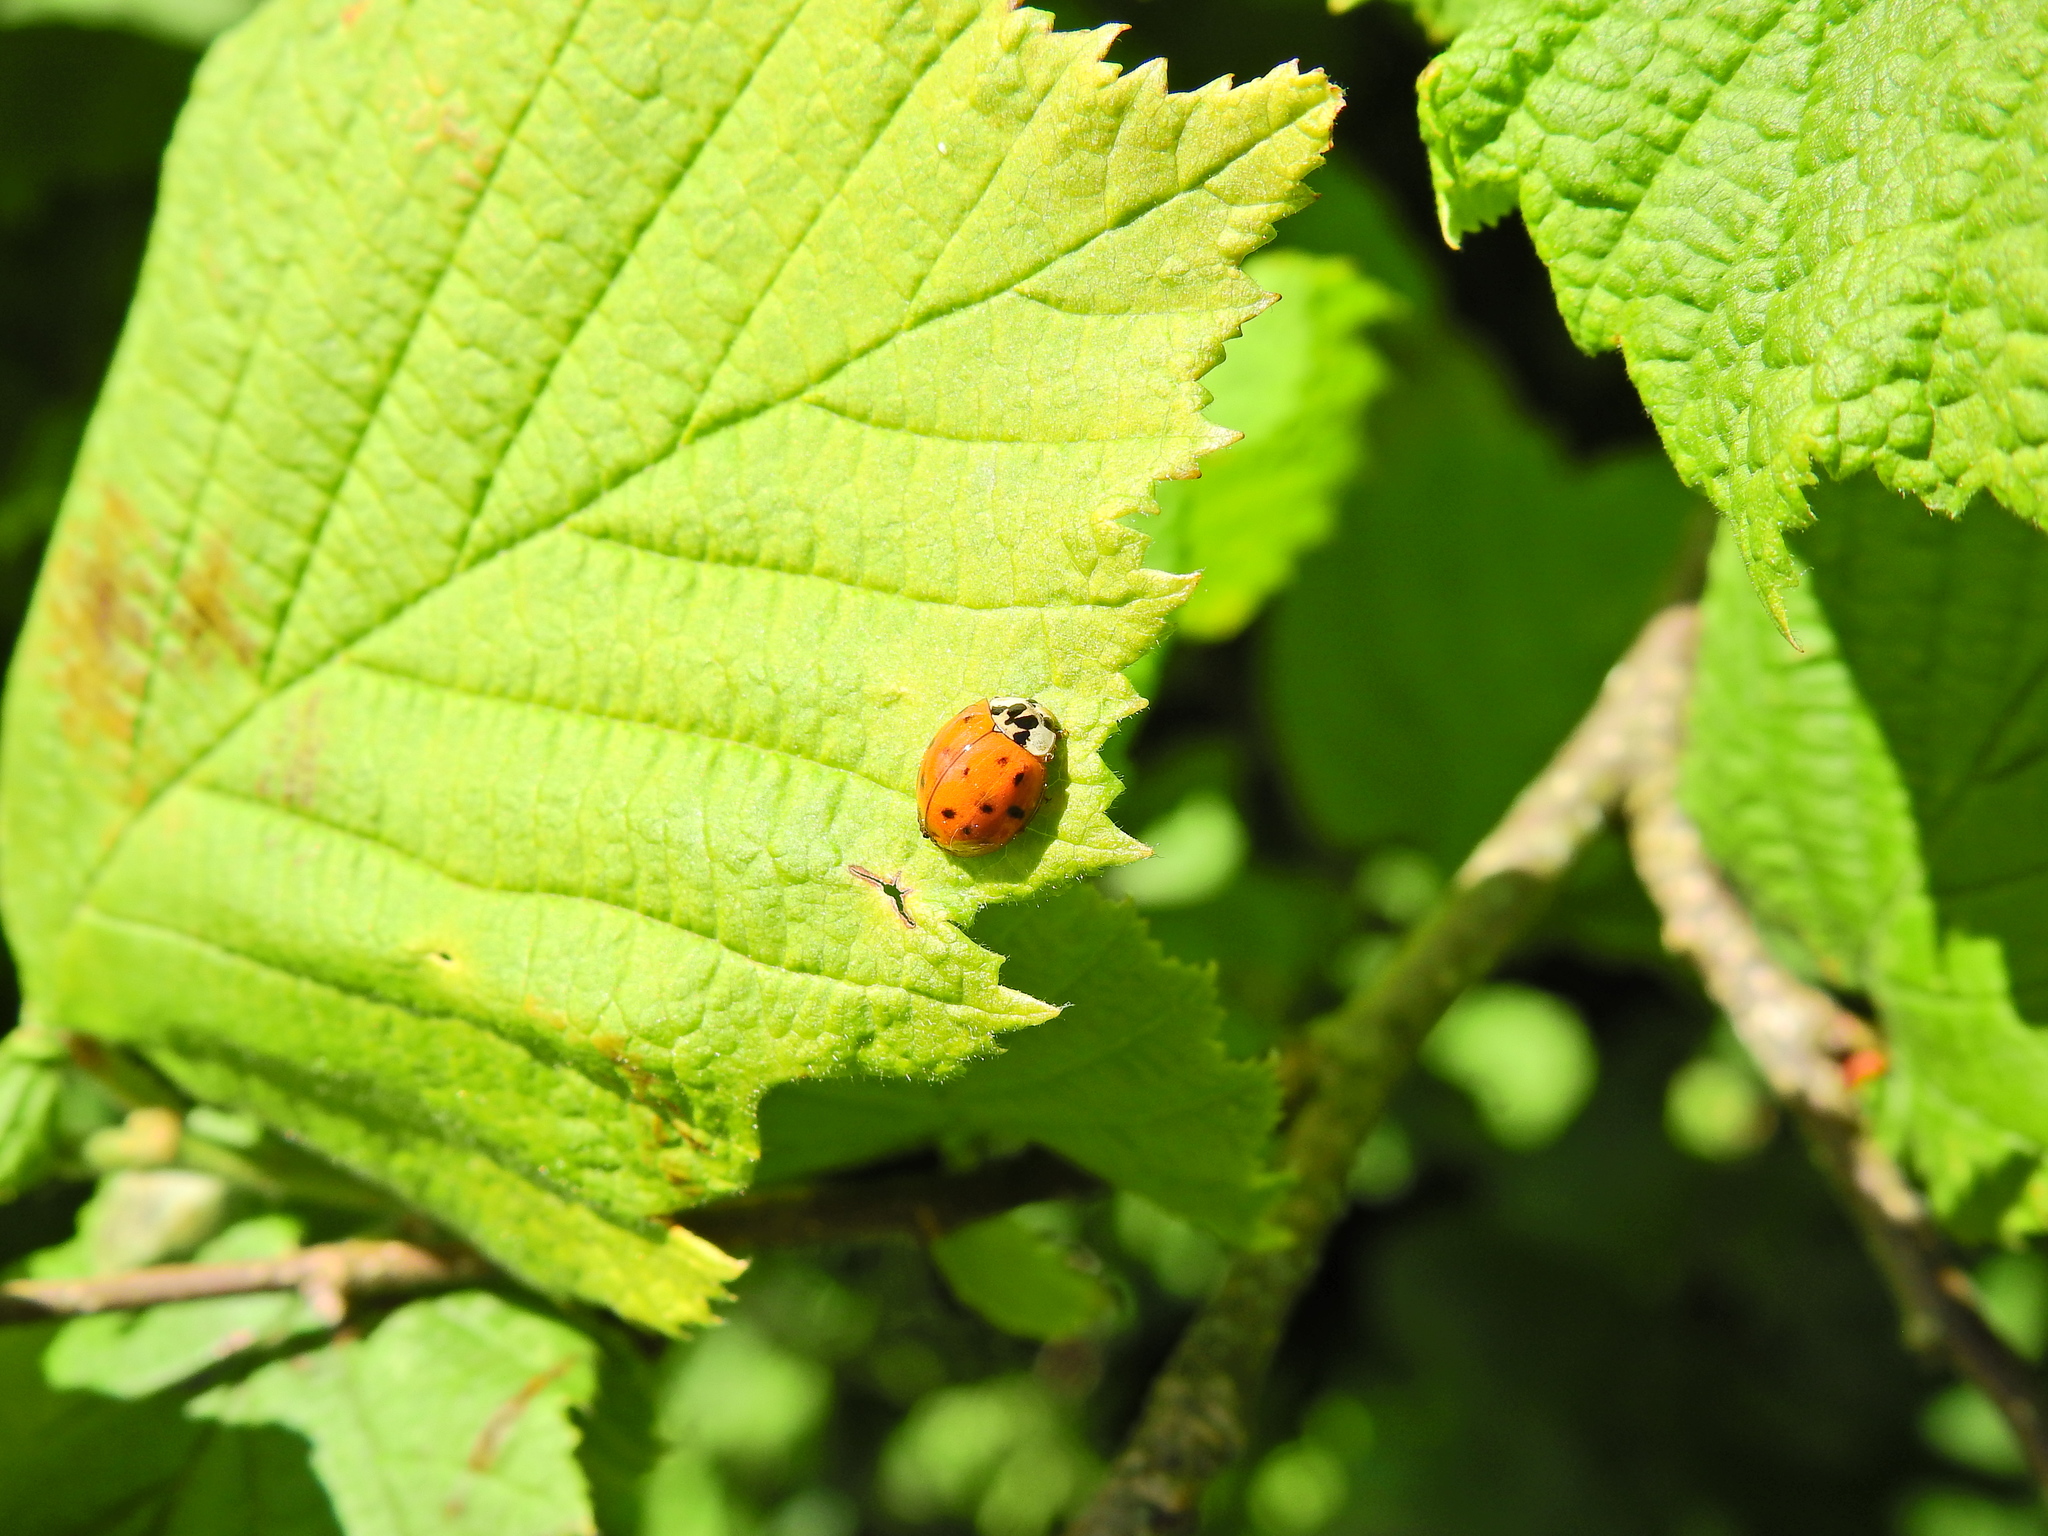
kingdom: Animalia
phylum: Arthropoda
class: Insecta
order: Coleoptera
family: Coccinellidae
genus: Harmonia
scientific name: Harmonia axyridis
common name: Harlequin ladybird
